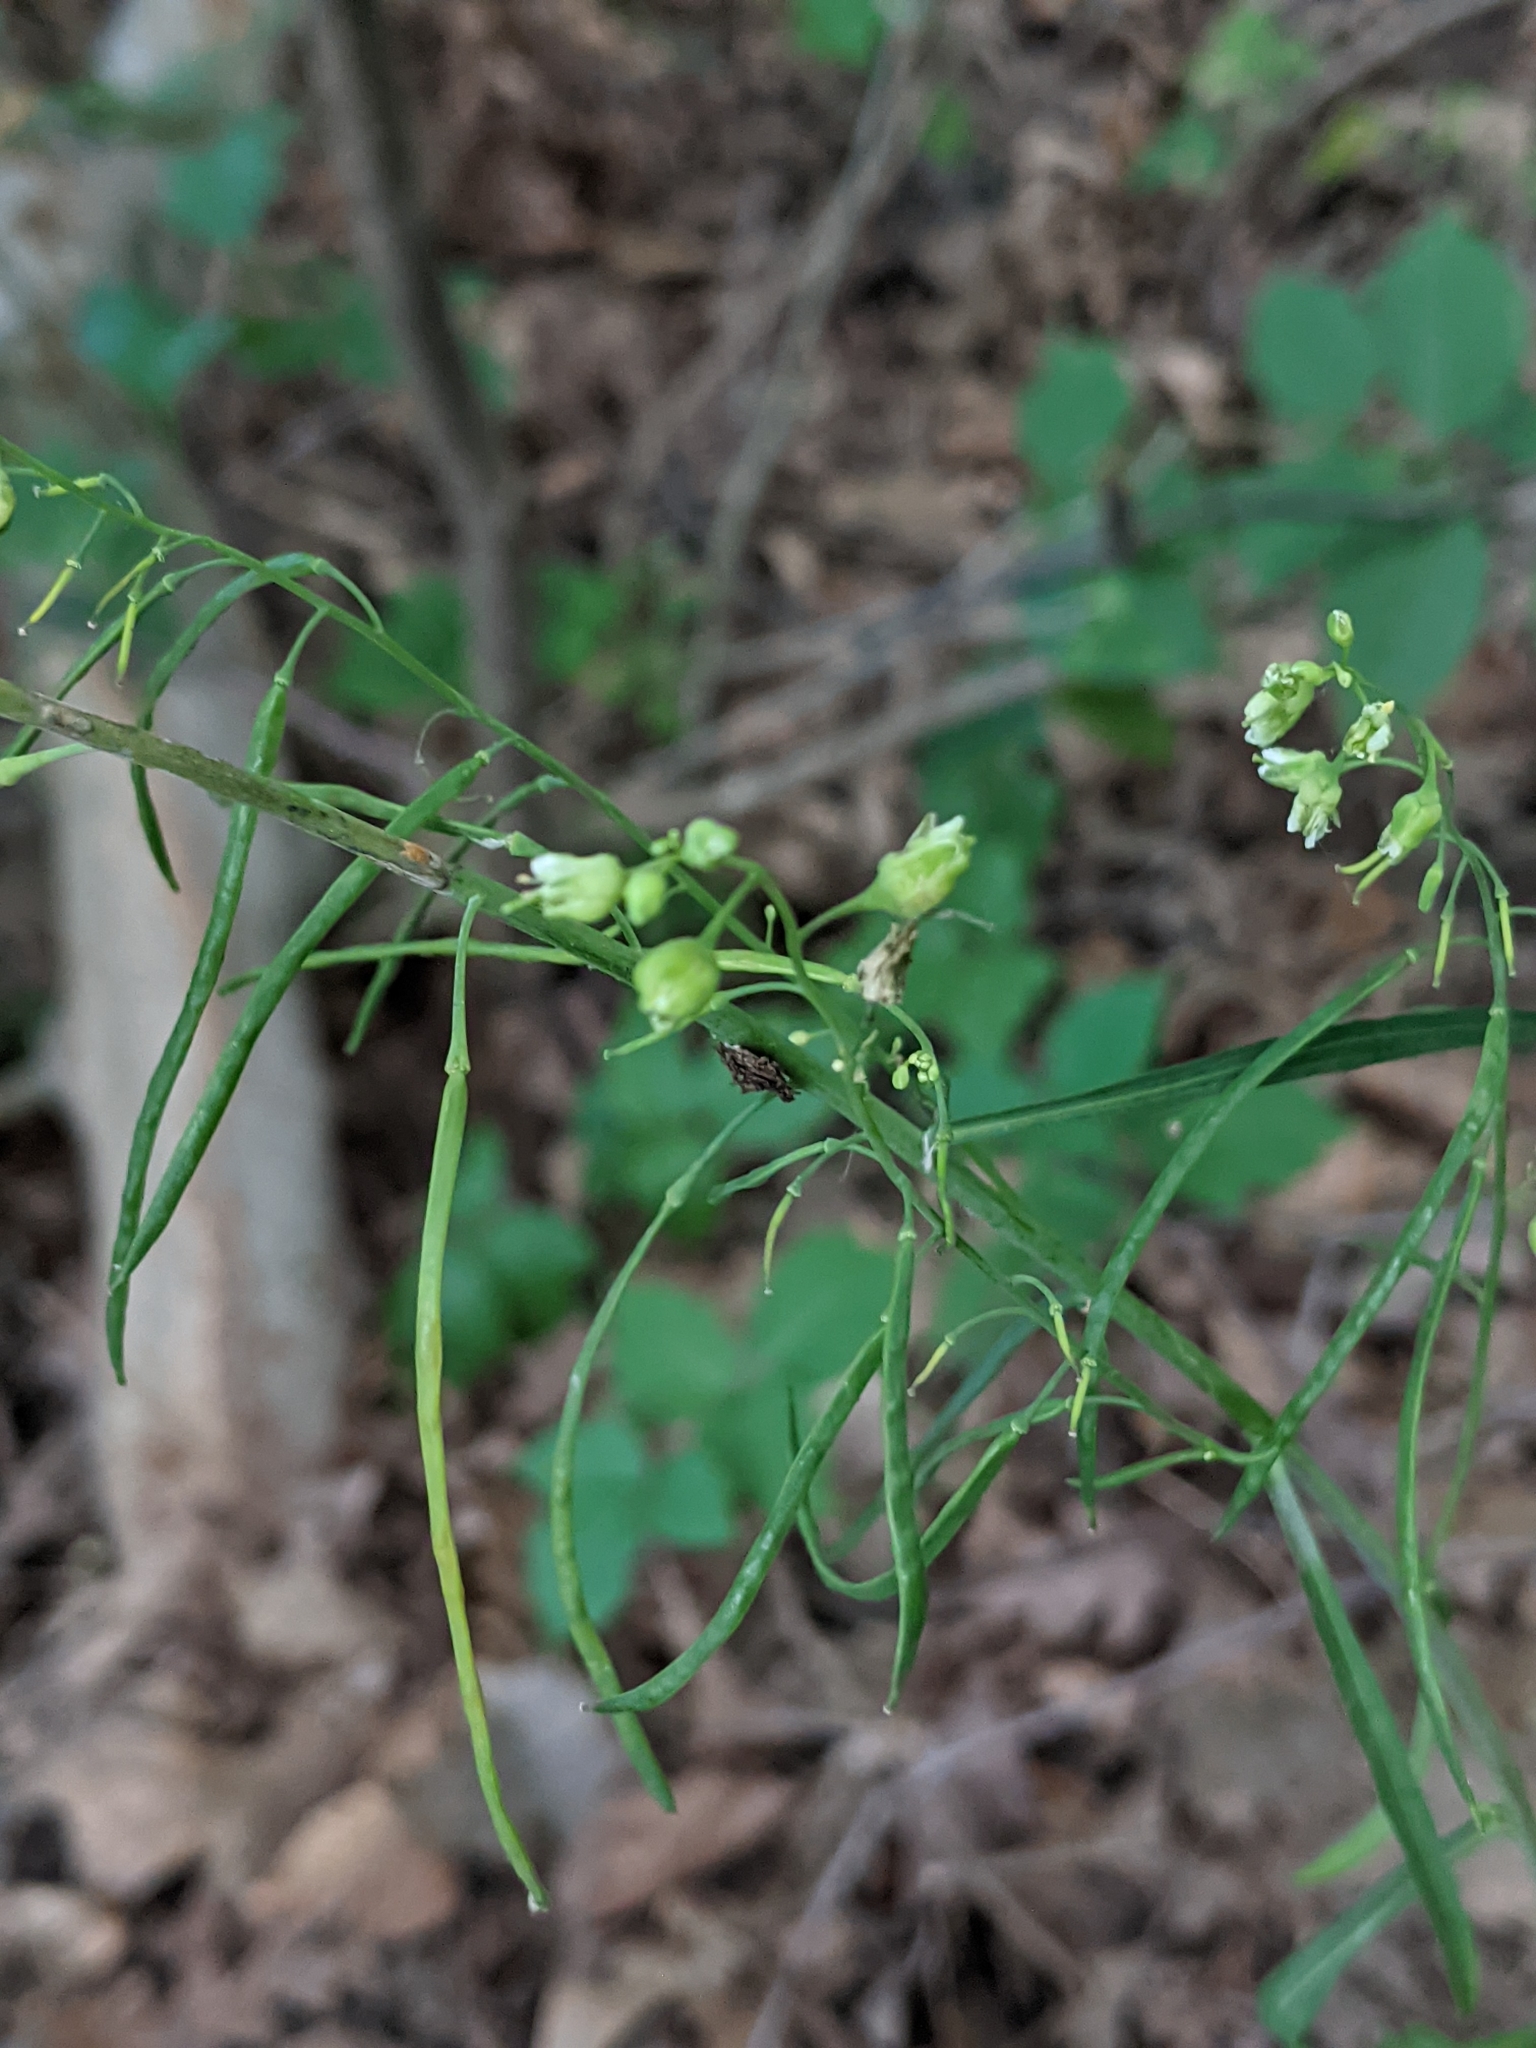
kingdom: Plantae
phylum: Tracheophyta
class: Magnoliopsida
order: Brassicales
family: Brassicaceae
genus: Borodinia
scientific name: Borodinia laevigata
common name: Smooth rockcress
